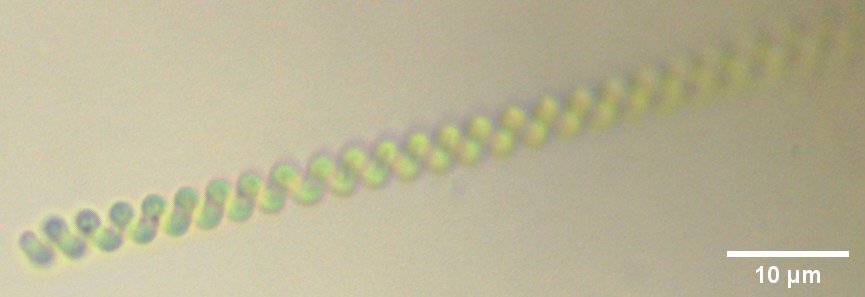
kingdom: Bacteria
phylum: Cyanobacteria
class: Cyanobacteriia
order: Cyanobacteriales
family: Spirulinaceae
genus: Spirulina
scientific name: Spirulina major
